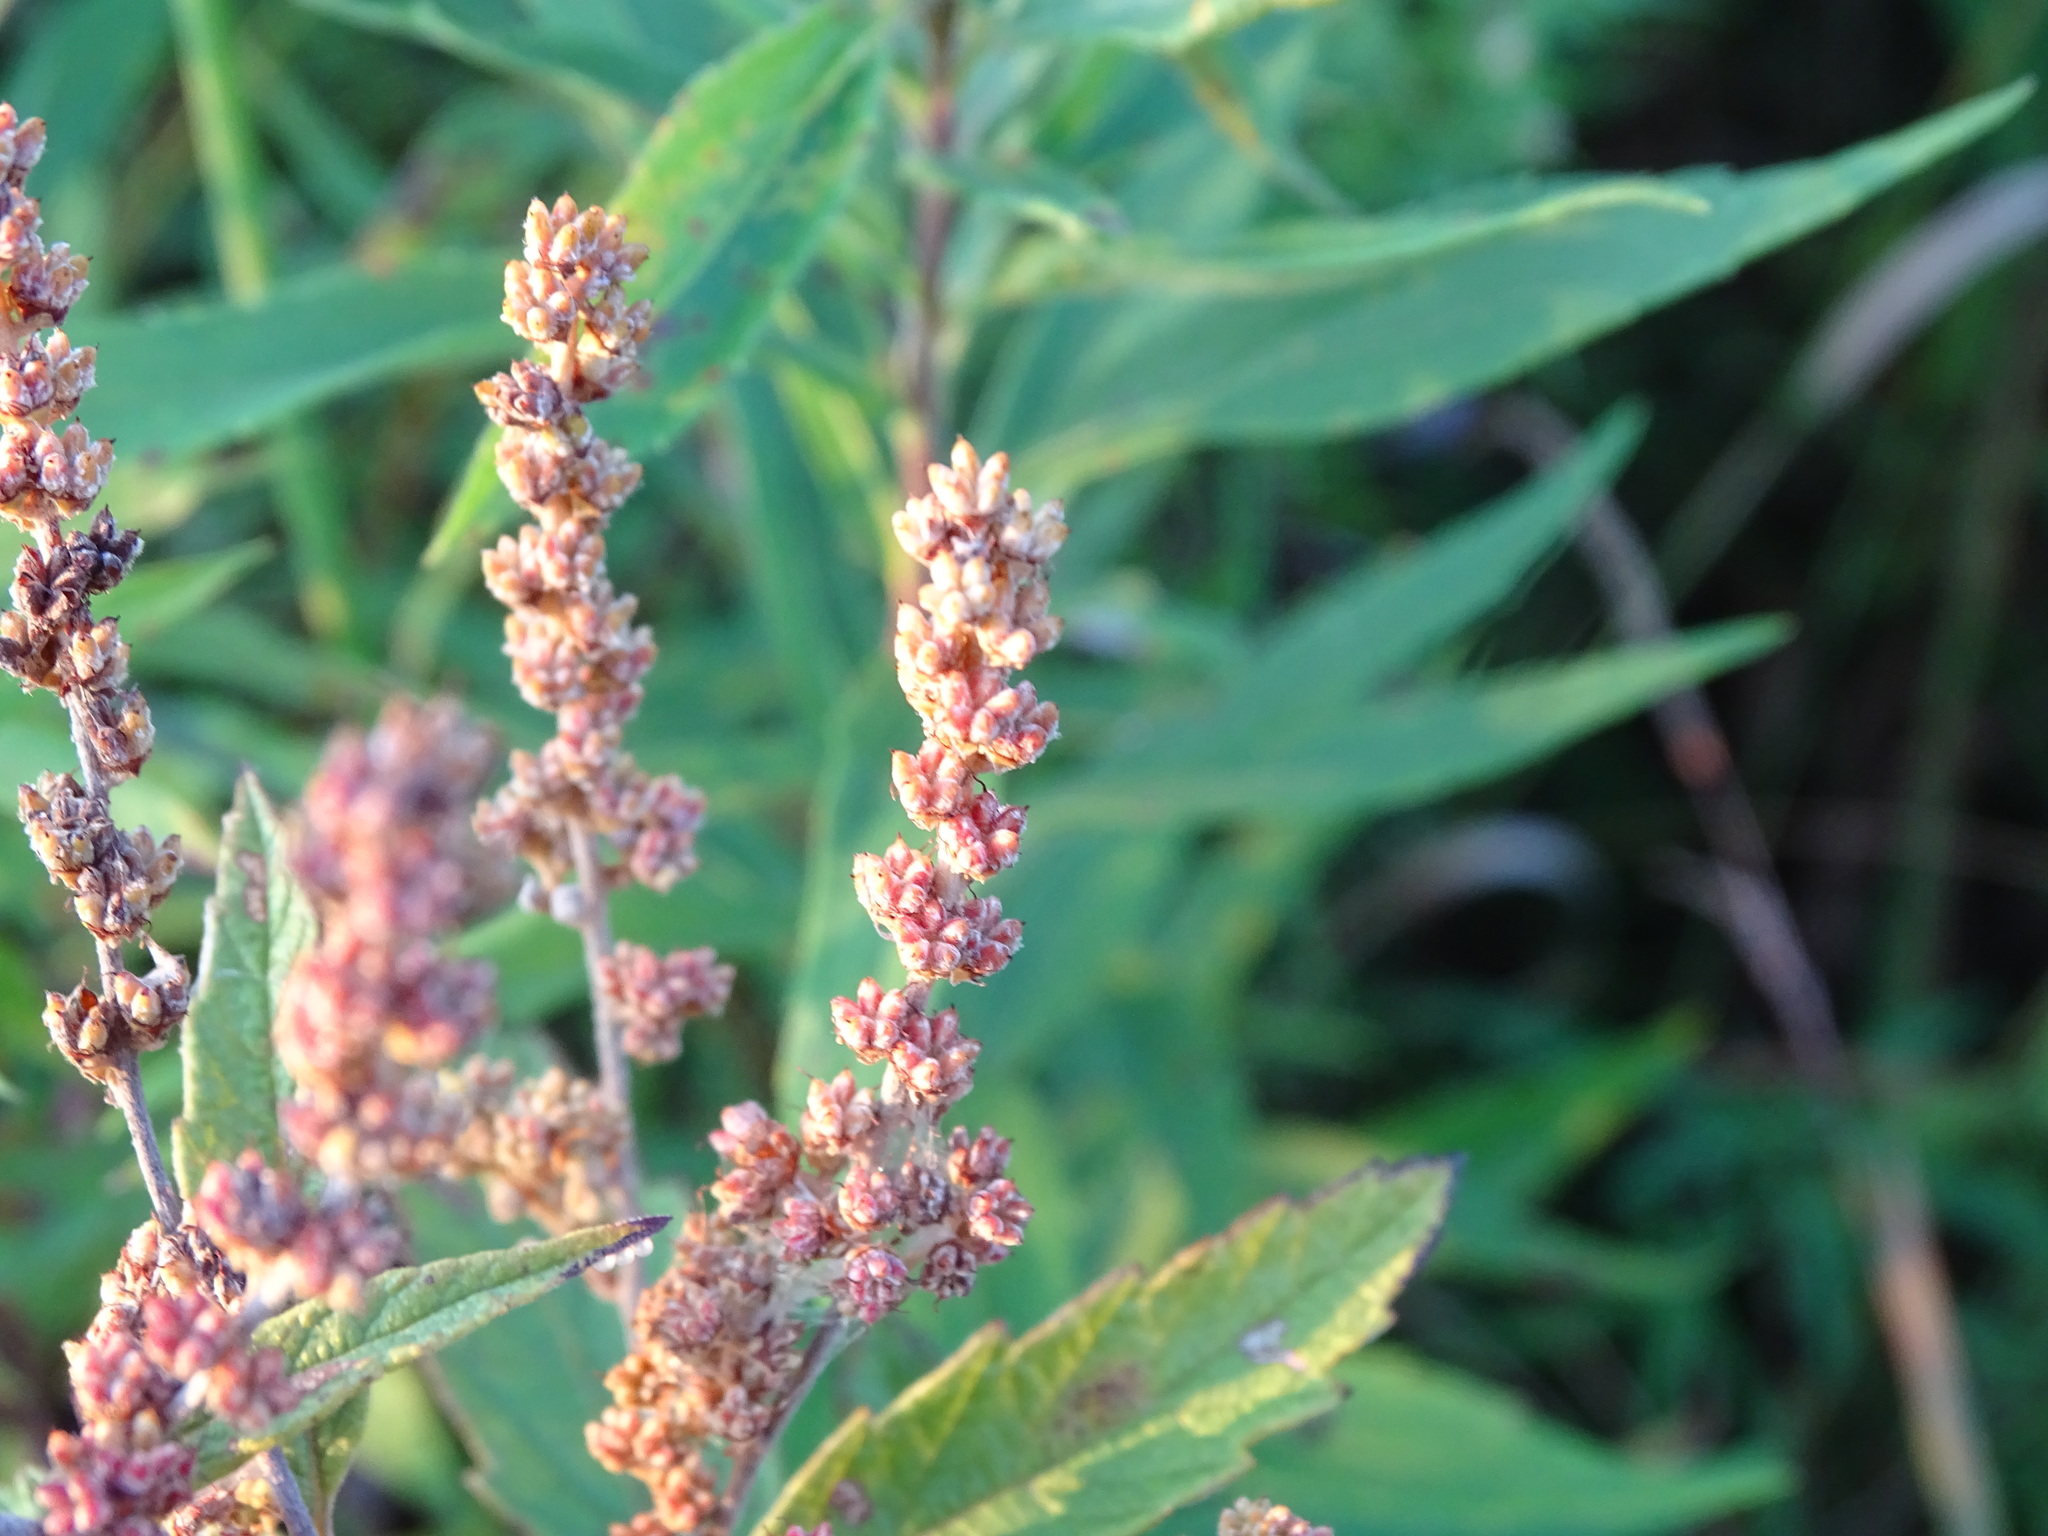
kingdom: Plantae
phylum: Tracheophyta
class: Magnoliopsida
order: Rosales
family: Rosaceae
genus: Spiraea
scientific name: Spiraea tomentosa
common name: Hardhack
